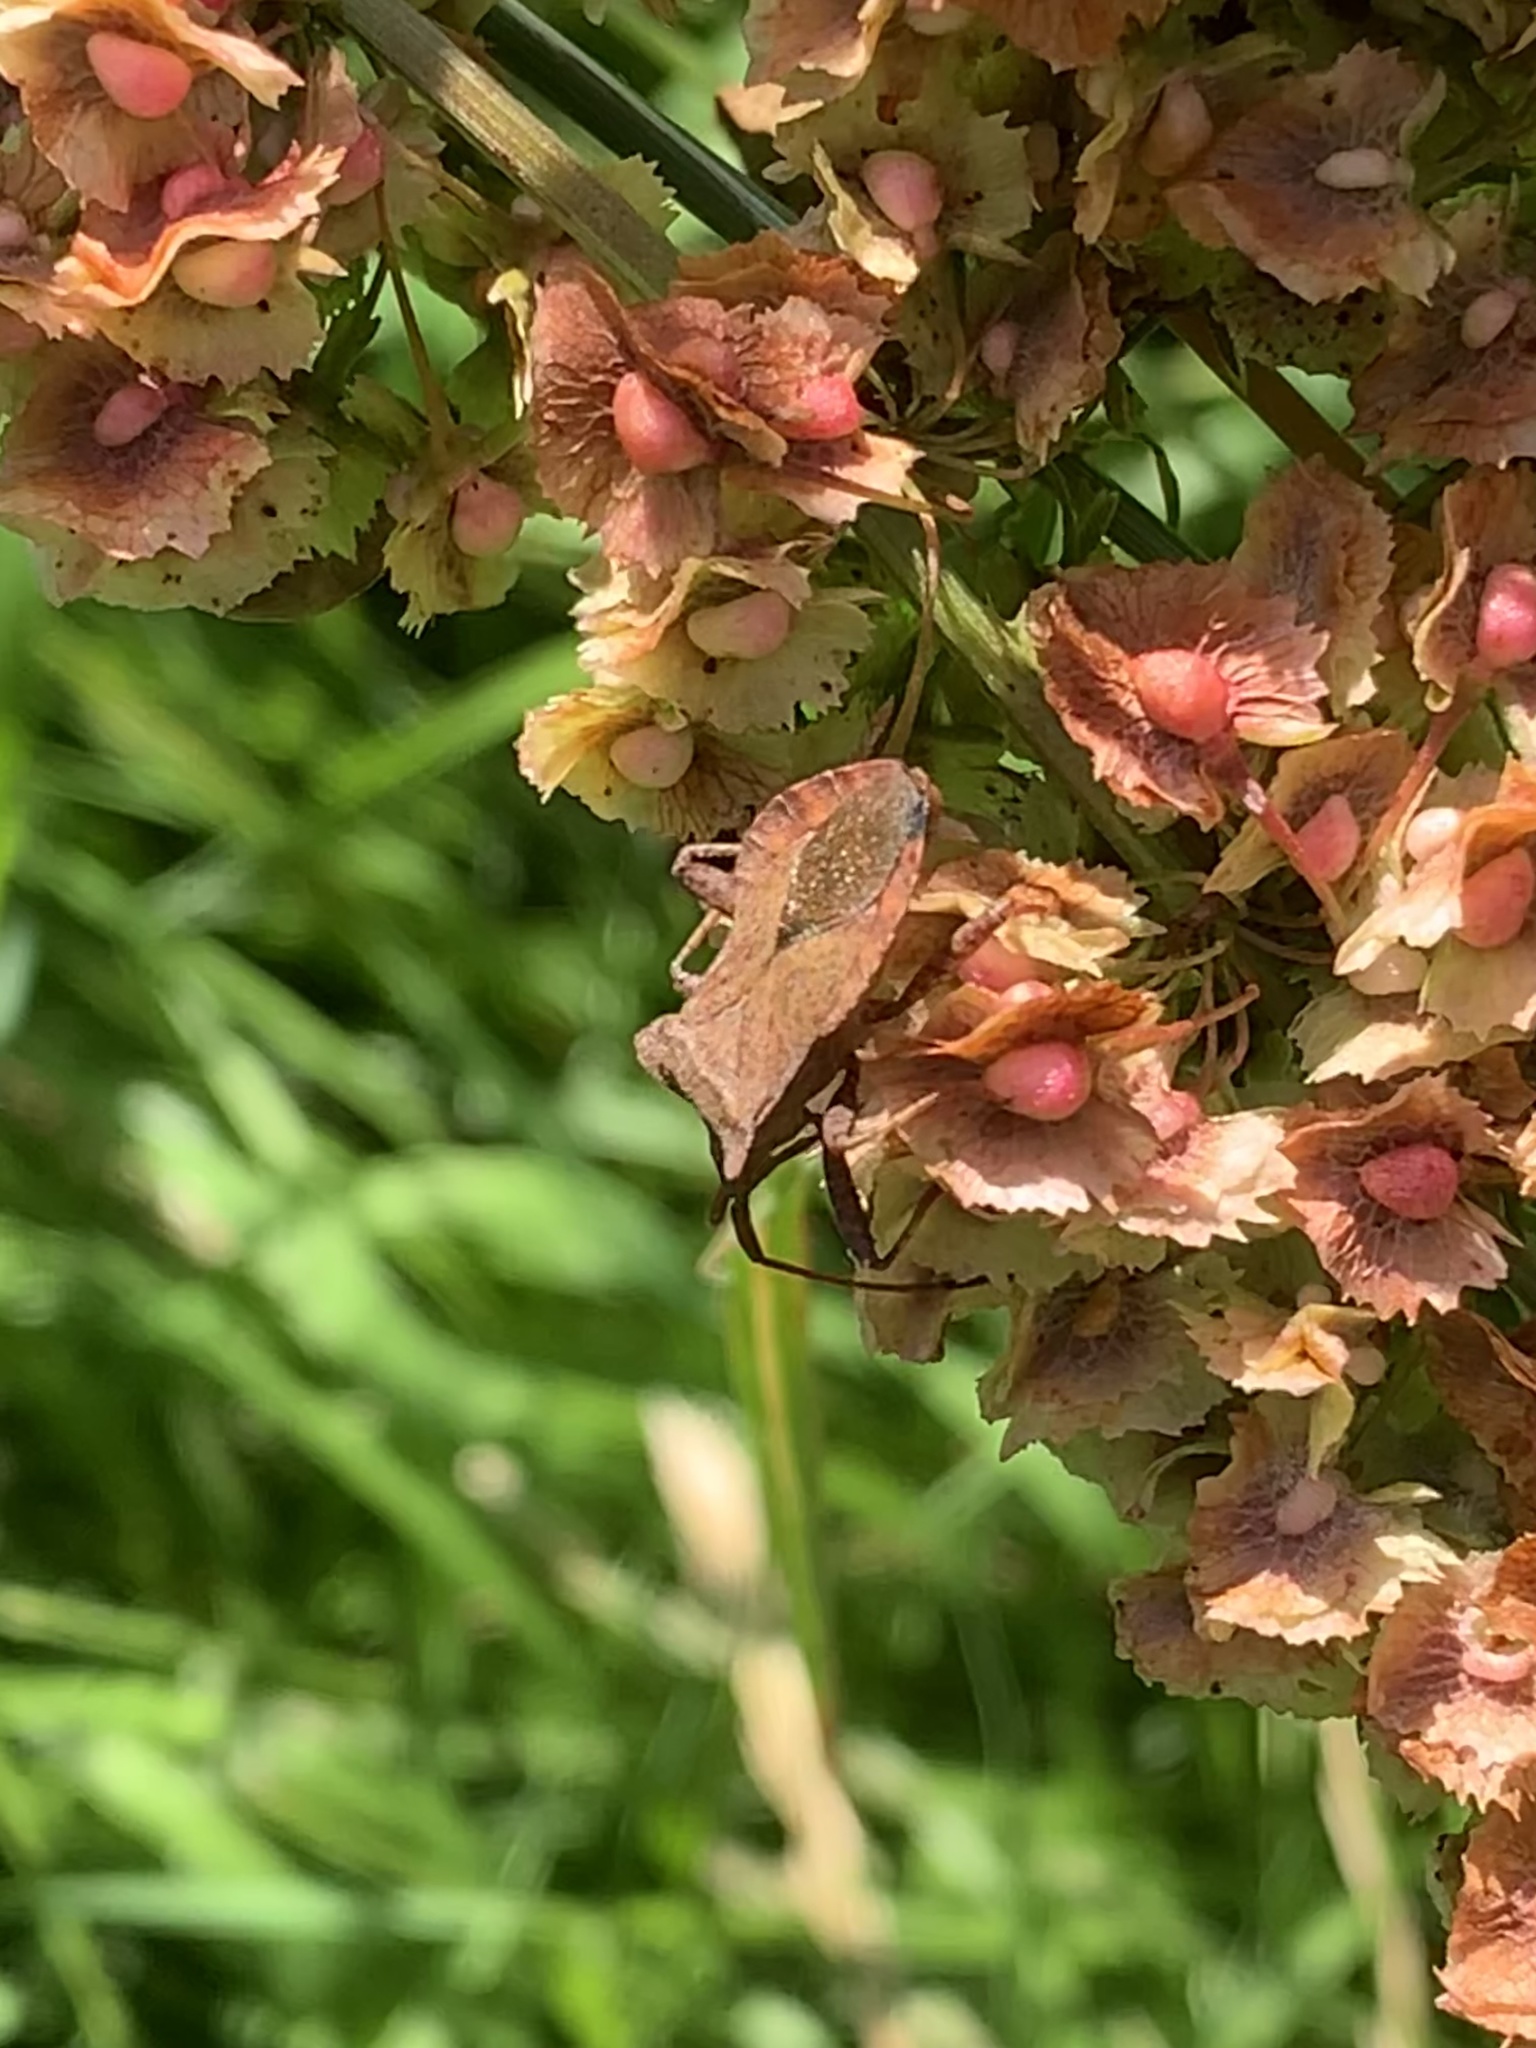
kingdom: Animalia
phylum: Arthropoda
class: Insecta
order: Hemiptera
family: Coreidae
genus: Coreus
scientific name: Coreus marginatus
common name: Dock bug
